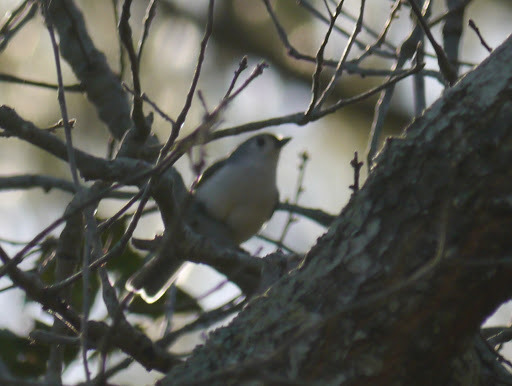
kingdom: Animalia
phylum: Chordata
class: Aves
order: Passeriformes
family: Paridae
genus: Baeolophus
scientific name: Baeolophus bicolor
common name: Tufted titmouse
